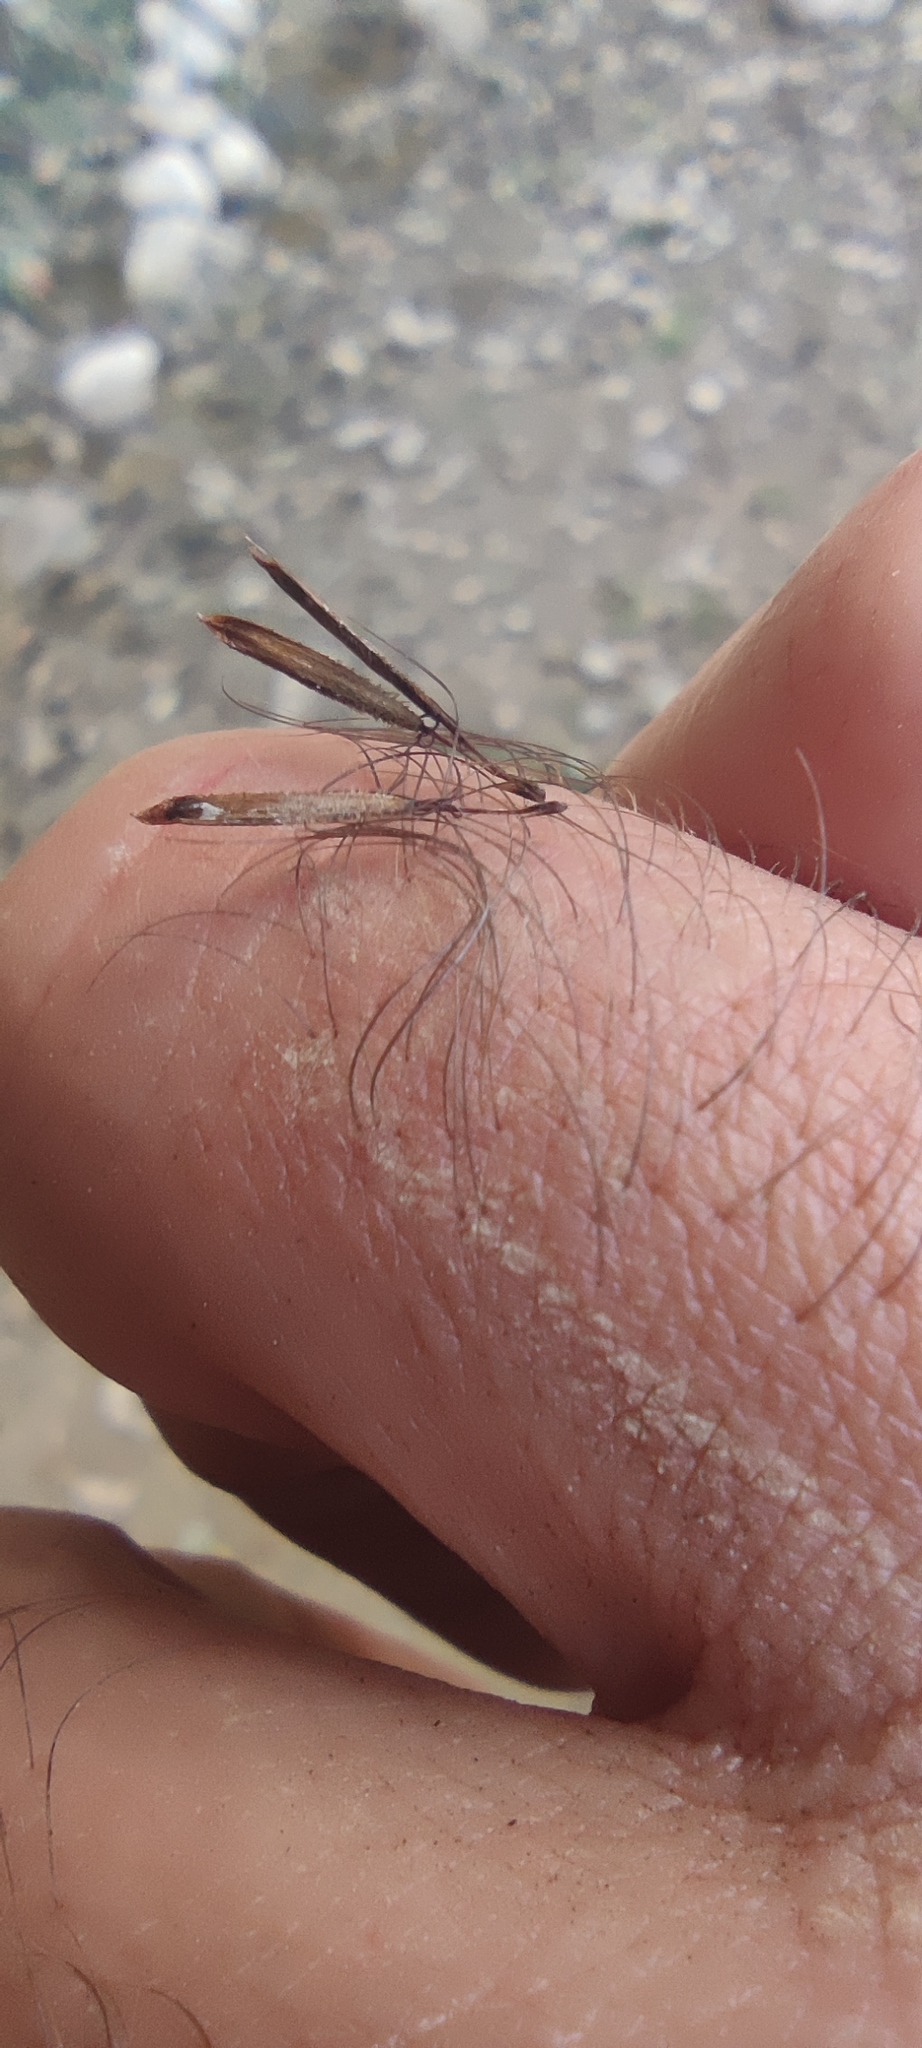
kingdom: Plantae
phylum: Tracheophyta
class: Liliopsida
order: Poales
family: Cyperaceae
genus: Carex
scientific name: Carex phleoides
